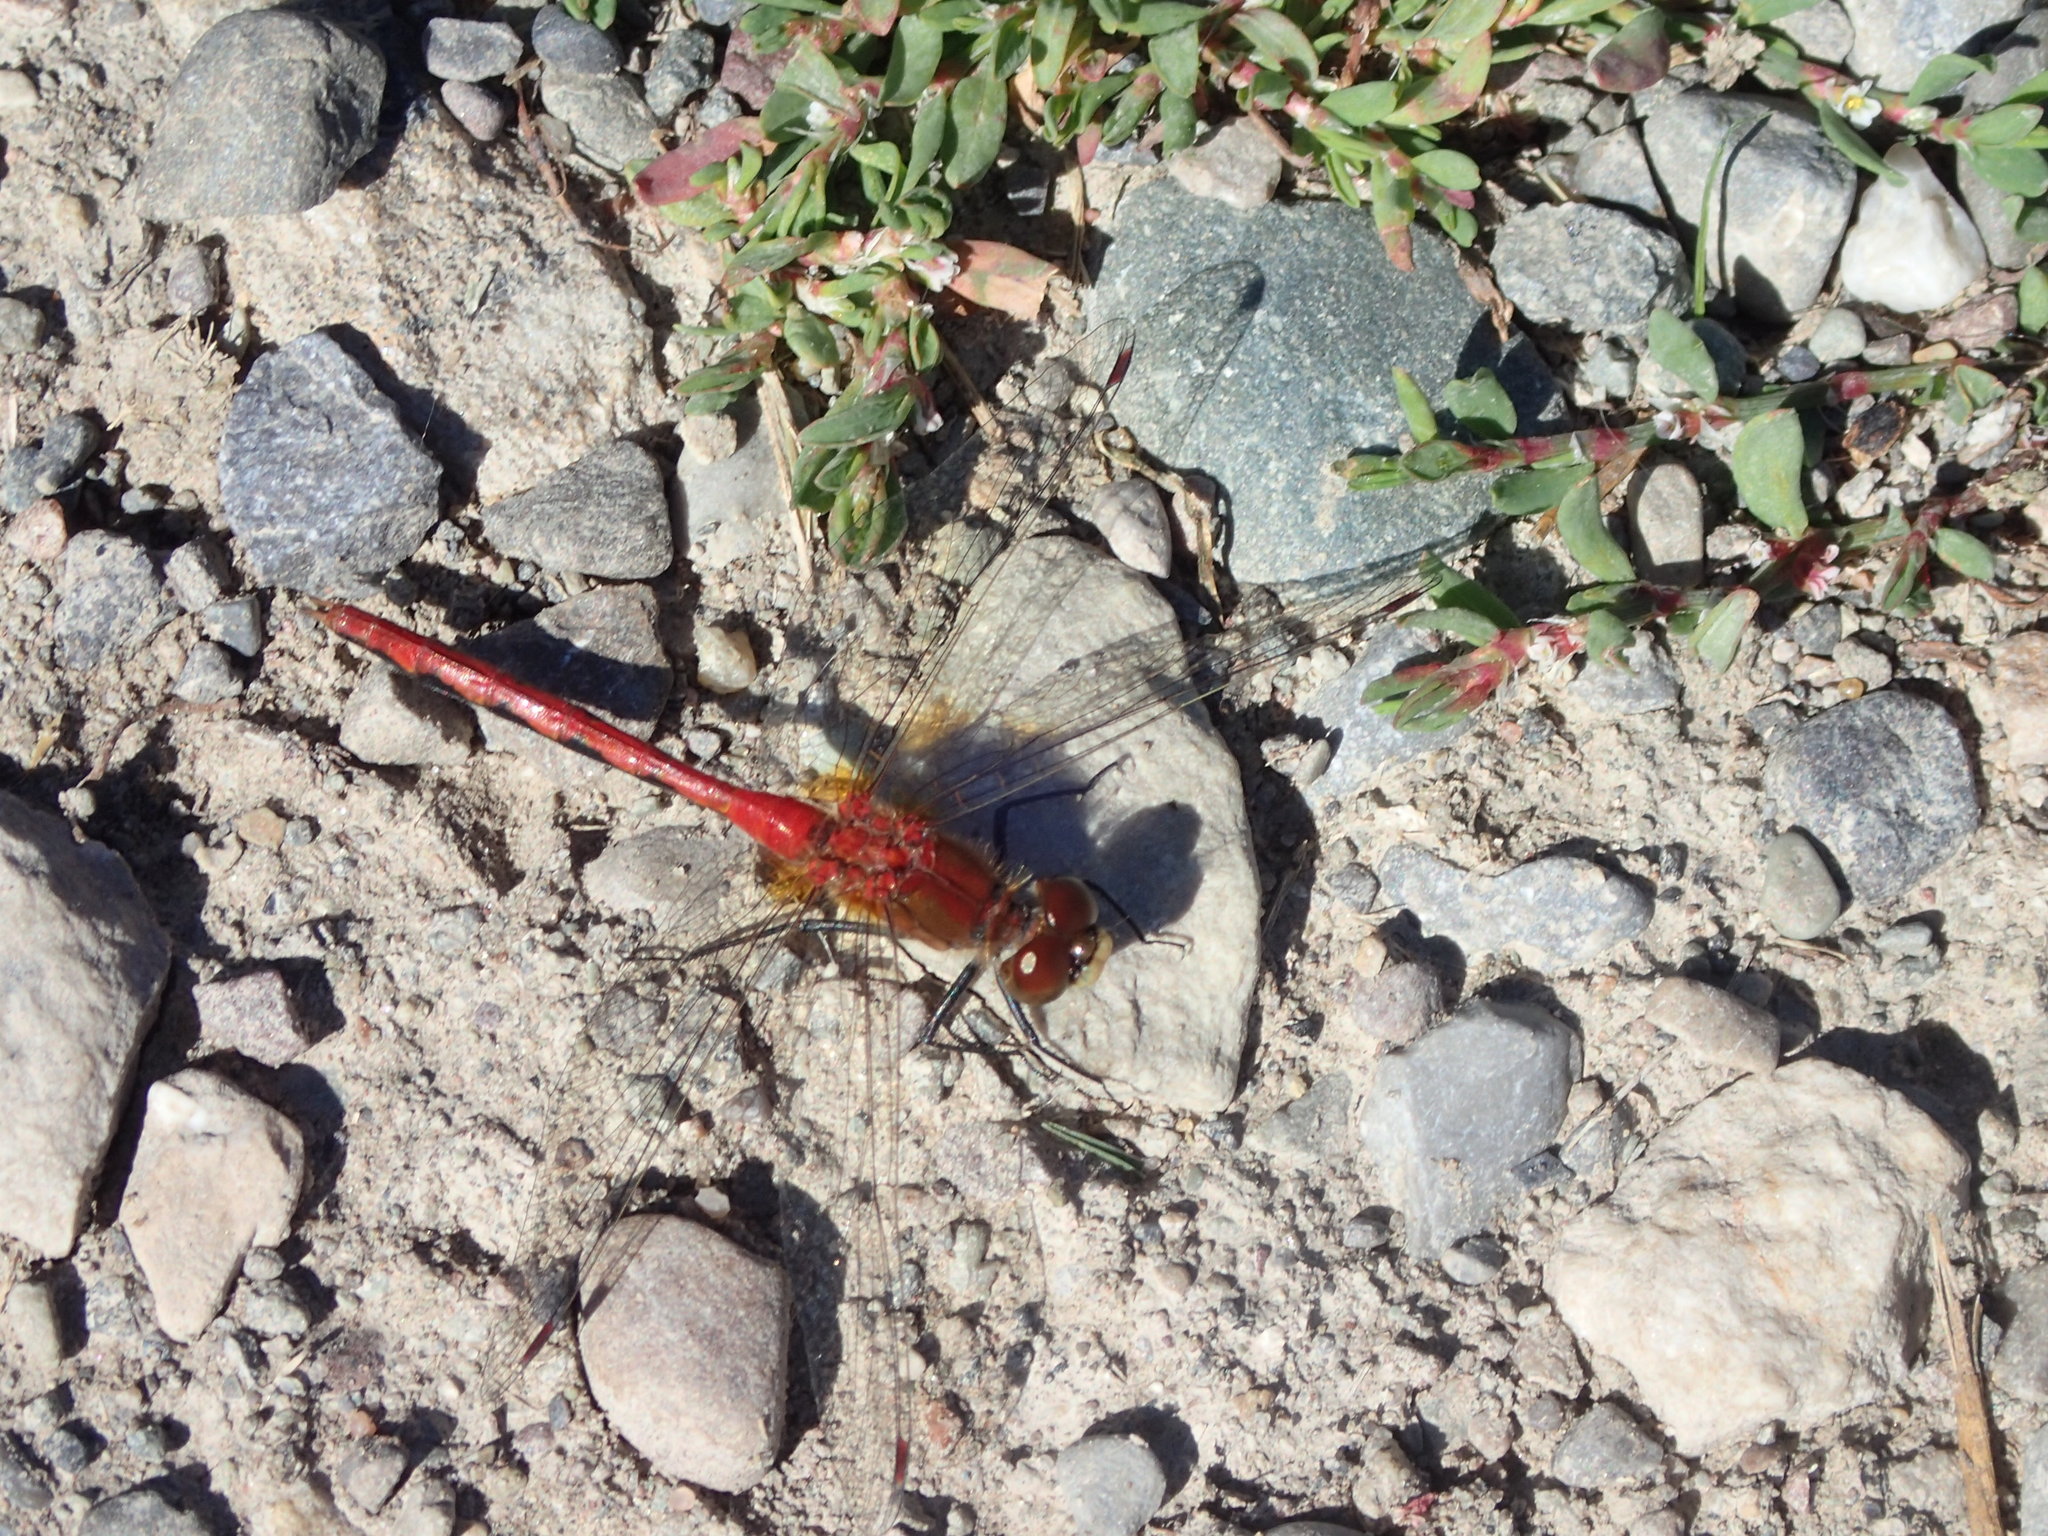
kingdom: Animalia
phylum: Arthropoda
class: Insecta
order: Odonata
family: Libellulidae
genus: Sympetrum
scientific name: Sympetrum obtrusum
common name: White-faced meadowhawk
